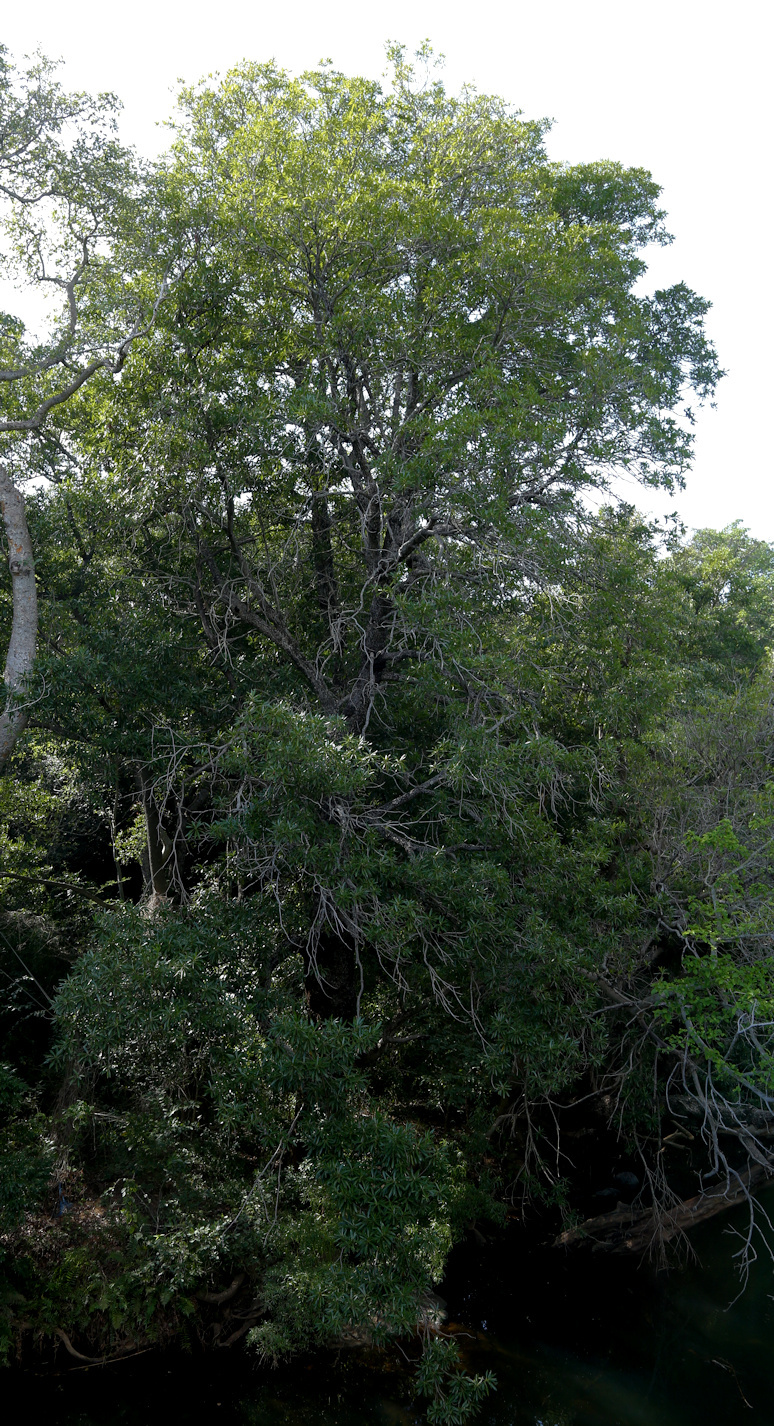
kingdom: Plantae
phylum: Tracheophyta
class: Magnoliopsida
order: Gentianales
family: Rubiaceae
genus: Breonadia
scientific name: Breonadia salicina
